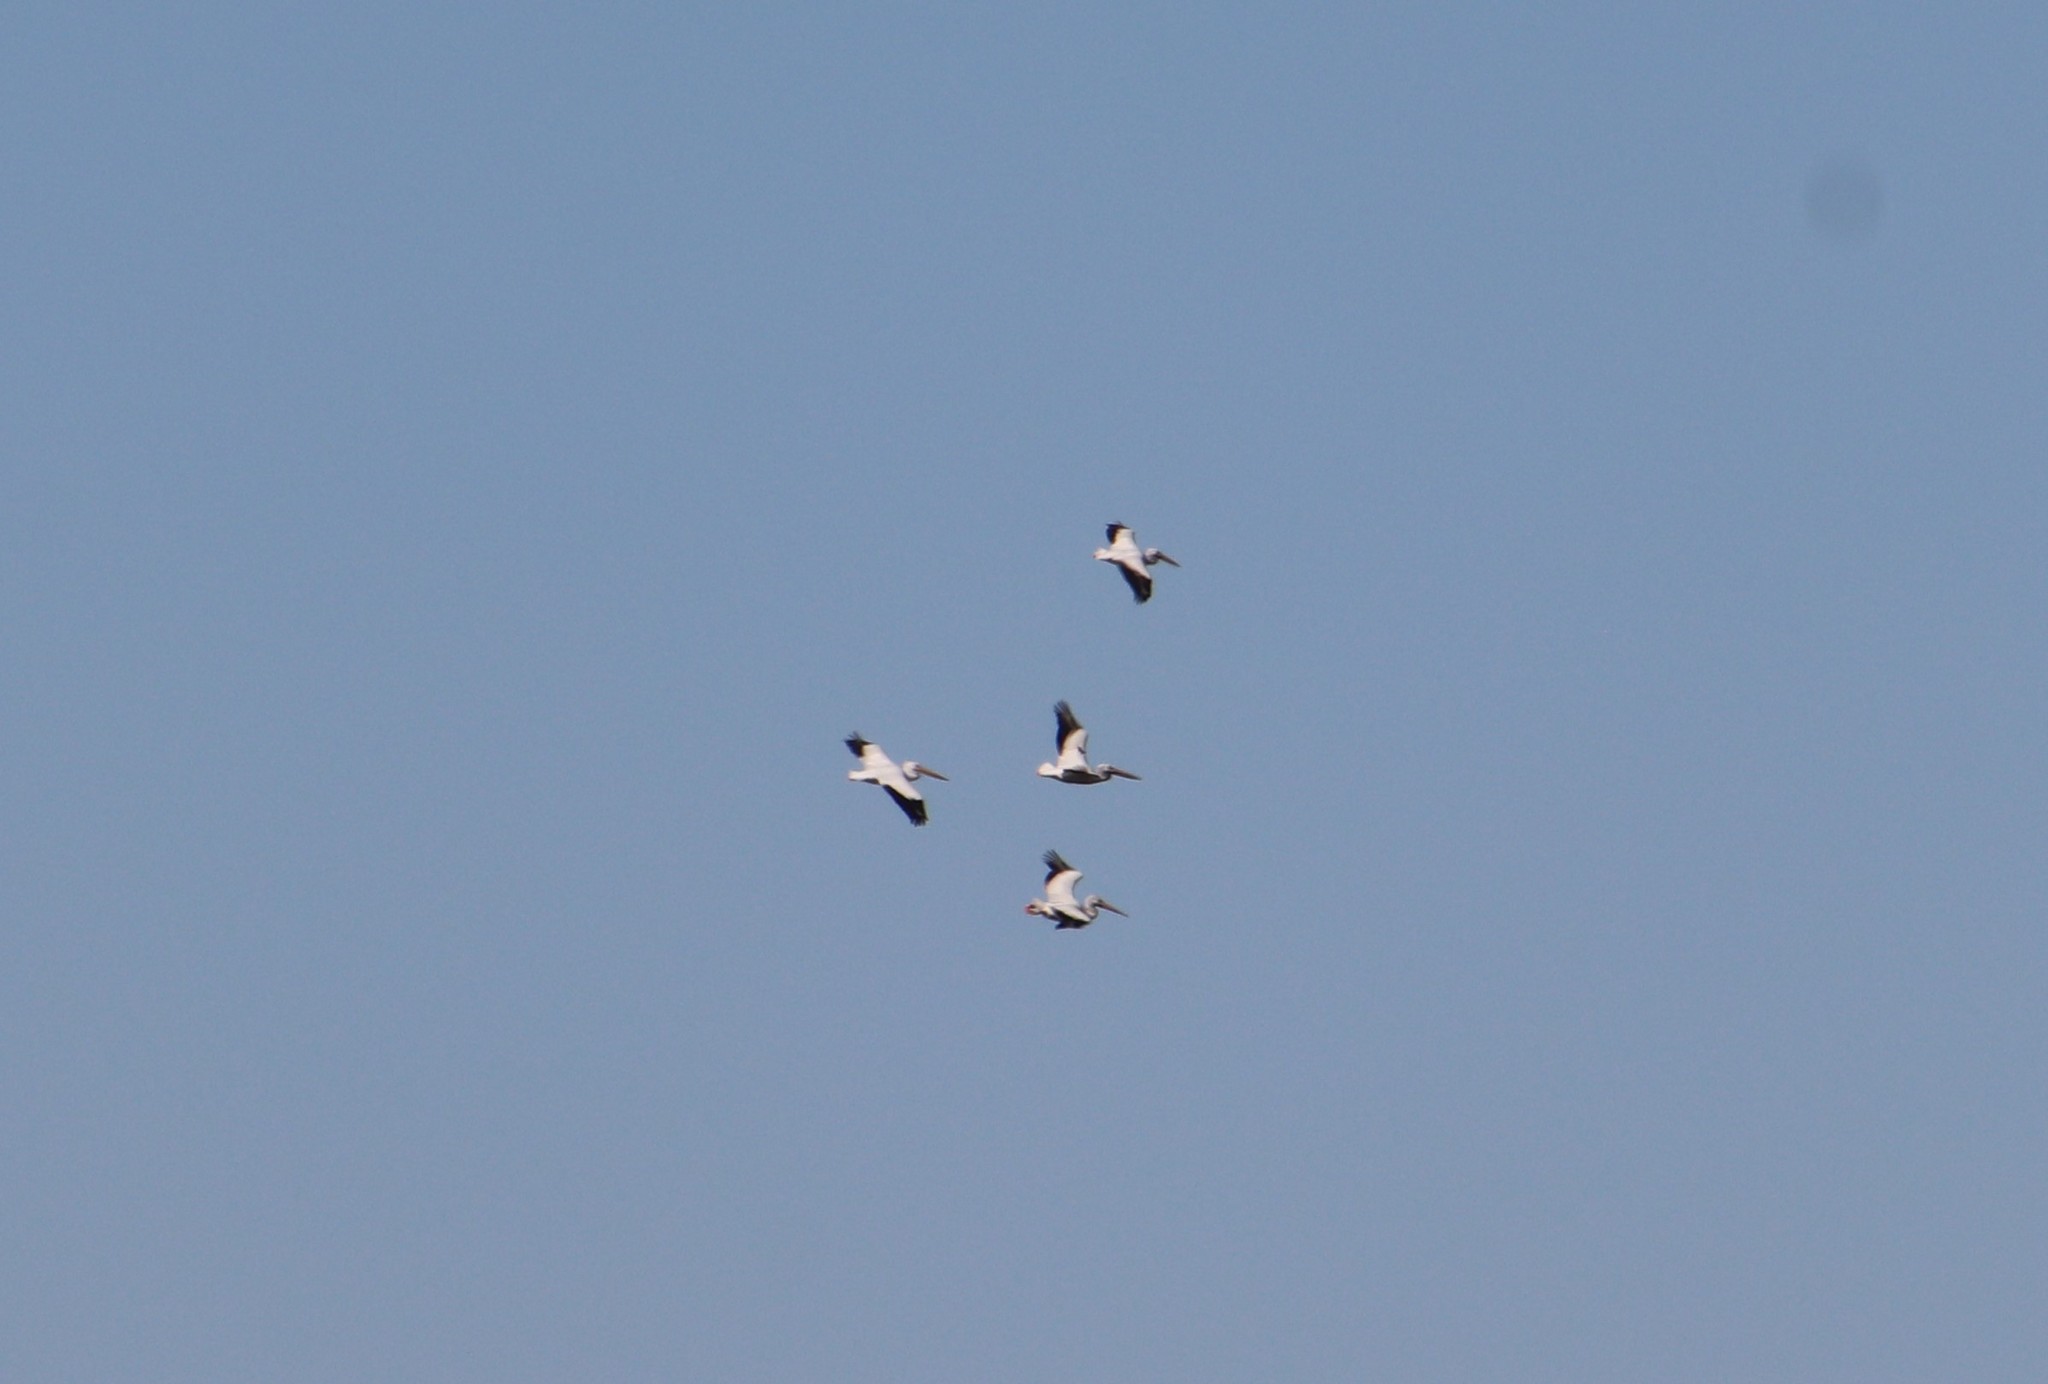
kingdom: Animalia
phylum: Chordata
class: Aves
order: Pelecaniformes
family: Pelecanidae
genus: Pelecanus
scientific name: Pelecanus erythrorhynchos
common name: American white pelican
